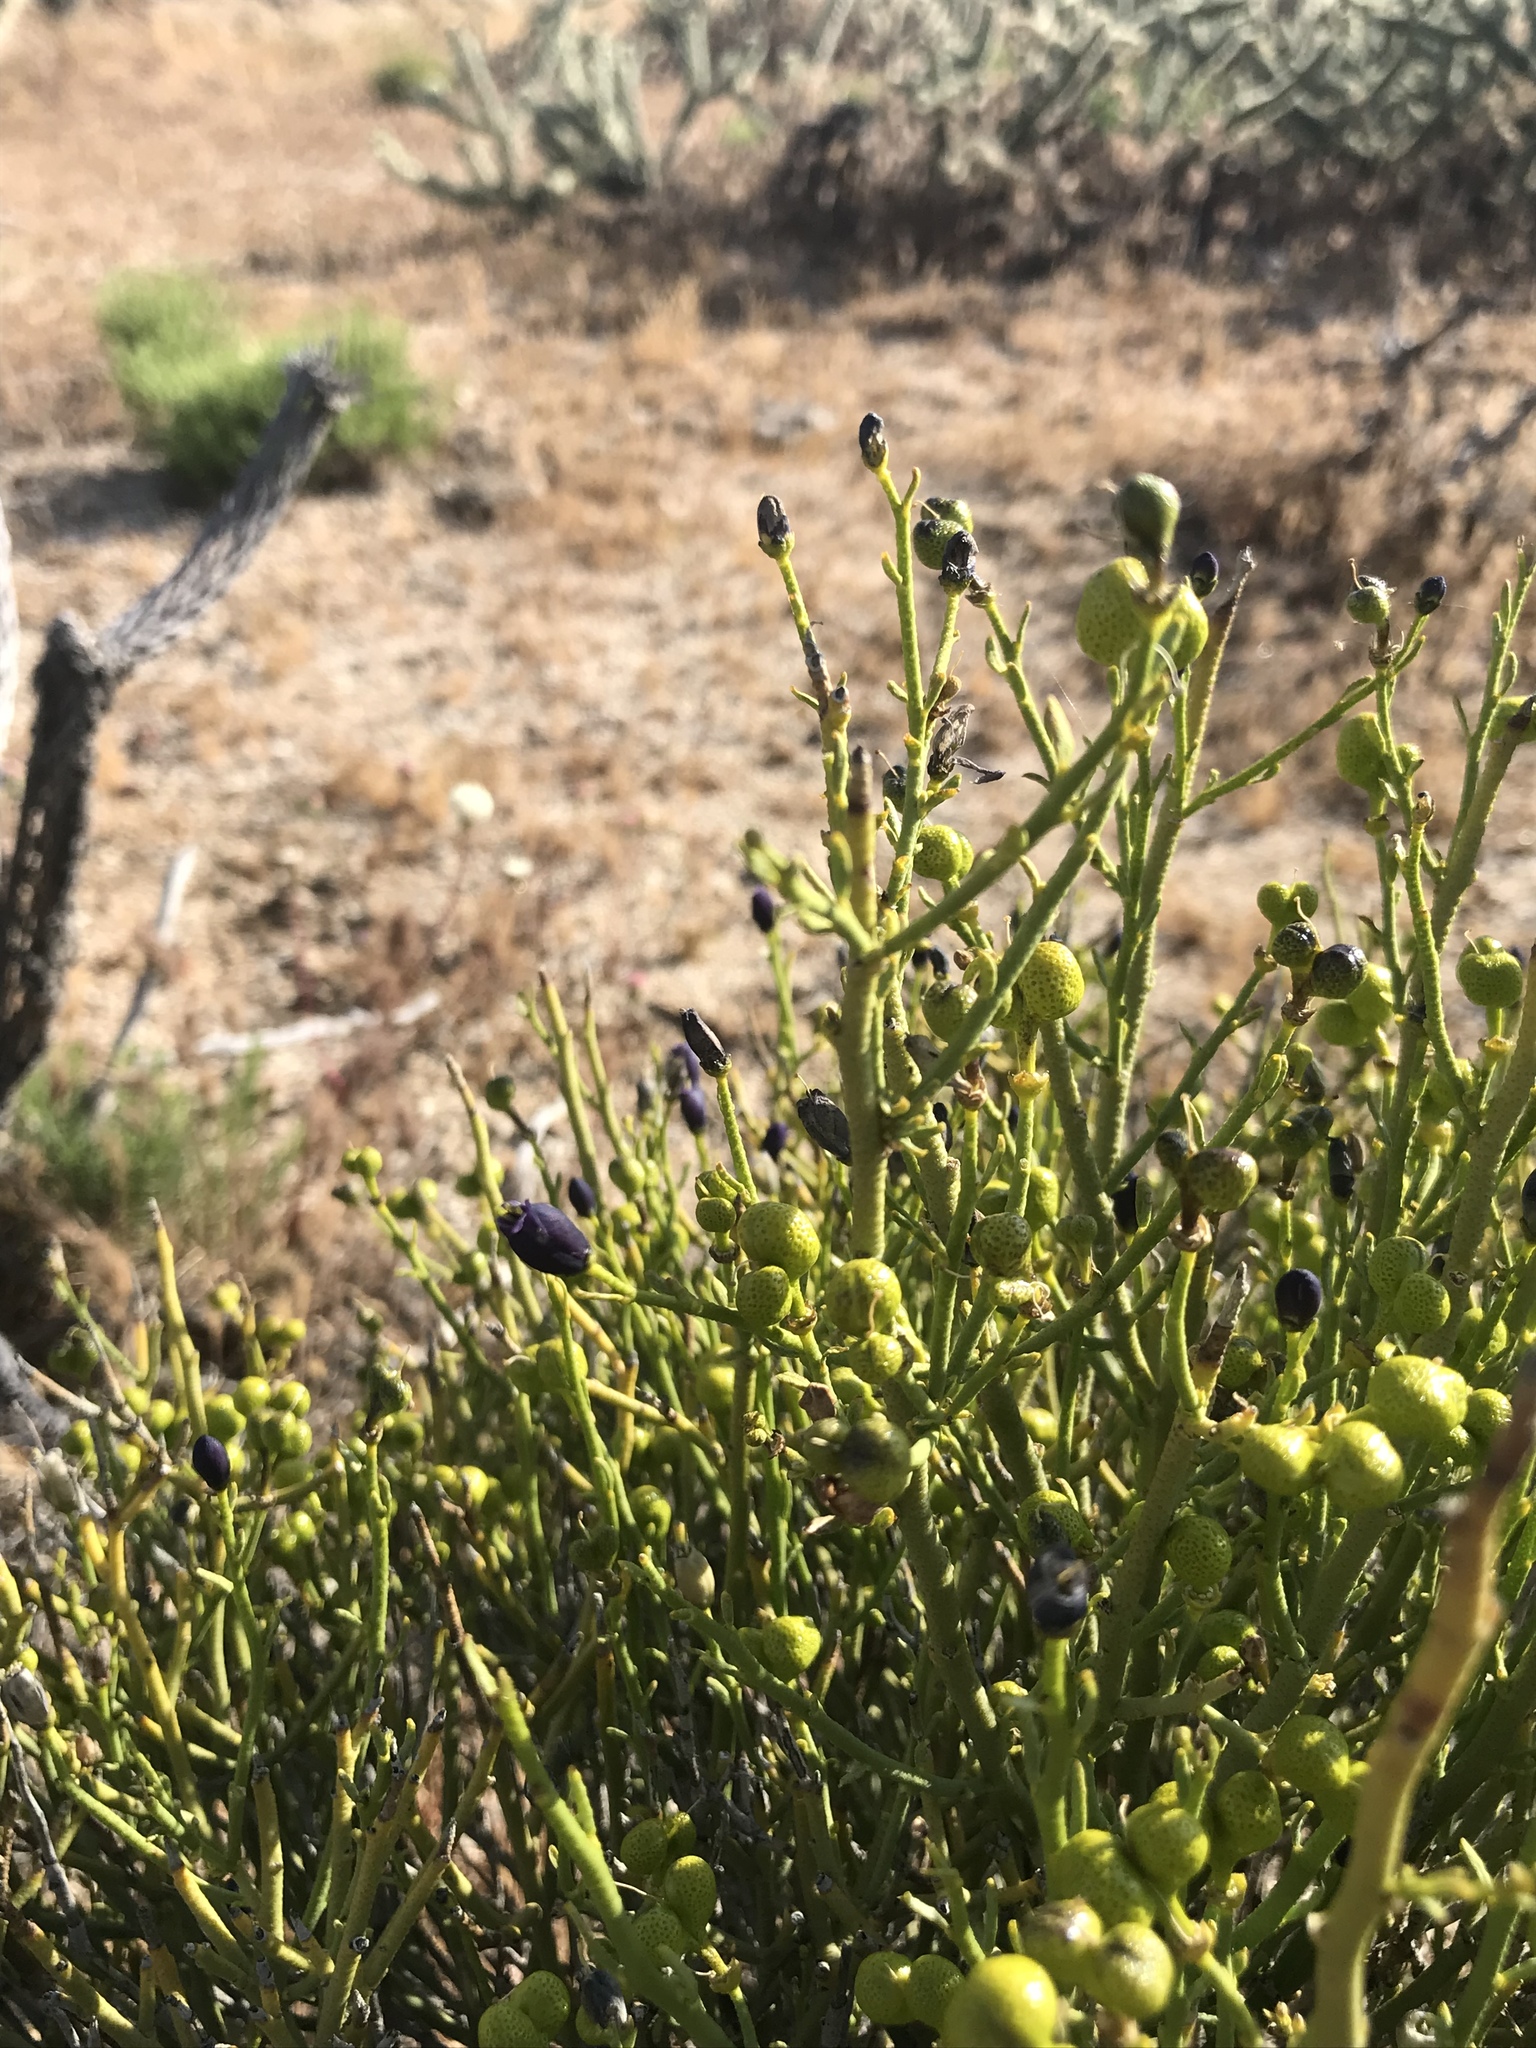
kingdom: Plantae
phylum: Tracheophyta
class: Magnoliopsida
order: Sapindales
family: Rutaceae
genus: Thamnosma
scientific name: Thamnosma montana
